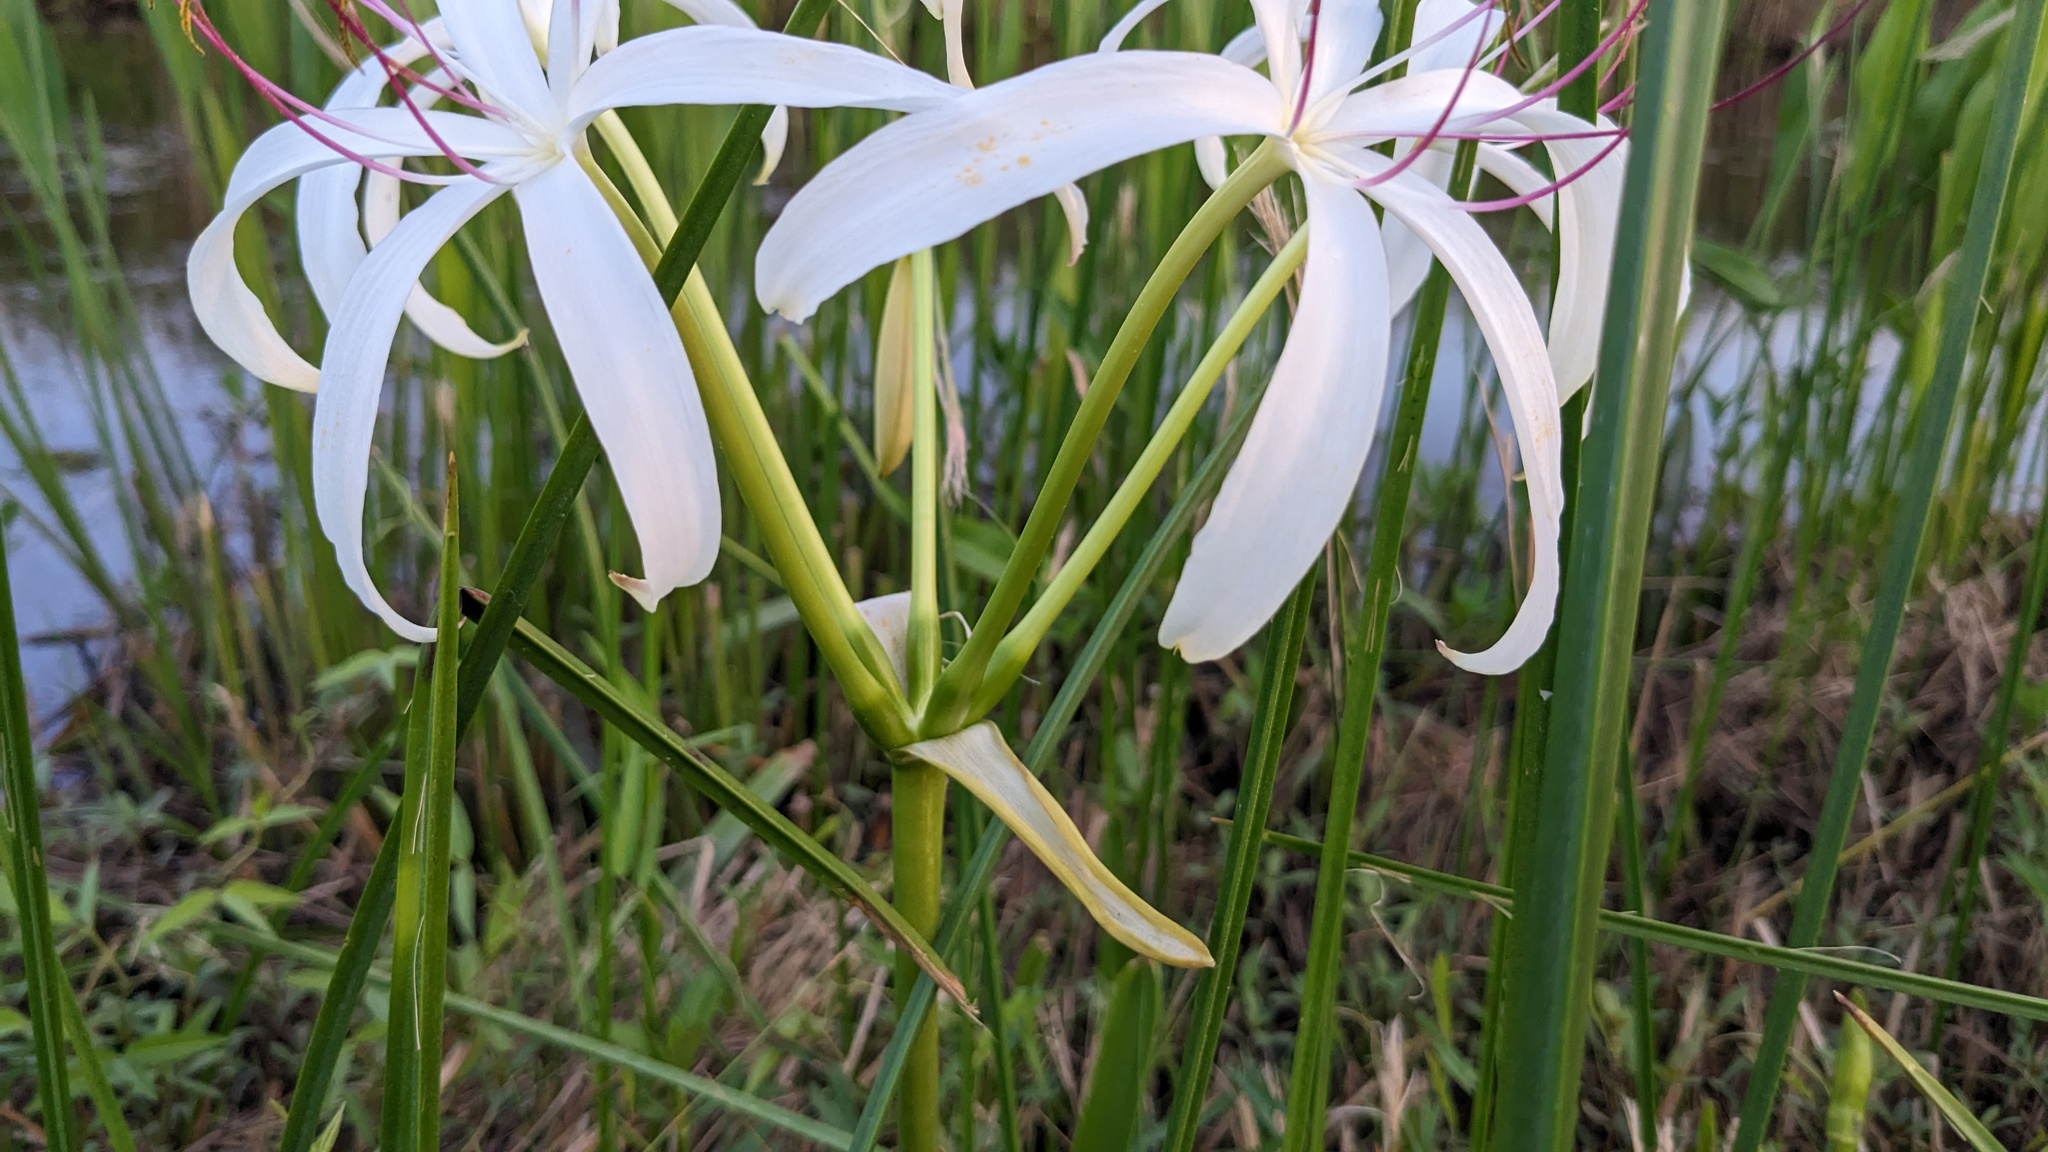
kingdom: Plantae
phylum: Tracheophyta
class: Liliopsida
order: Asparagales
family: Amaryllidaceae
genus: Crinum
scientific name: Crinum americanum
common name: Florida swamp-lily
